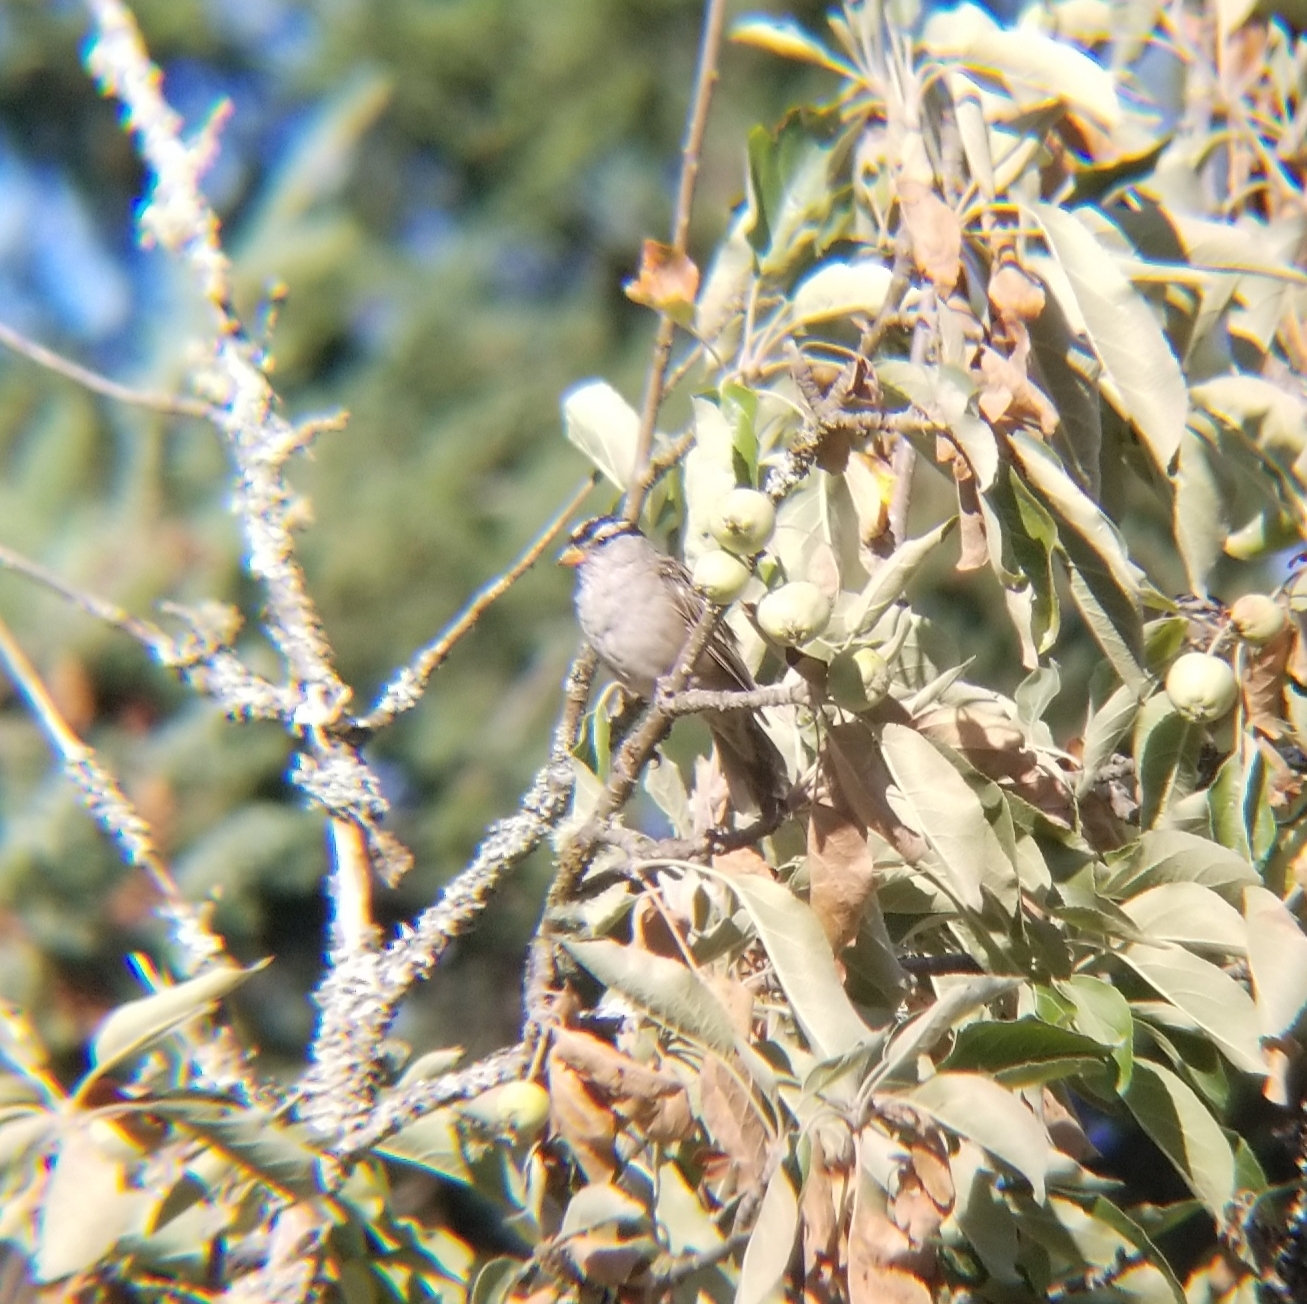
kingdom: Animalia
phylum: Chordata
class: Aves
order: Passeriformes
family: Passerellidae
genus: Zonotrichia
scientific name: Zonotrichia leucophrys
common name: White-crowned sparrow
